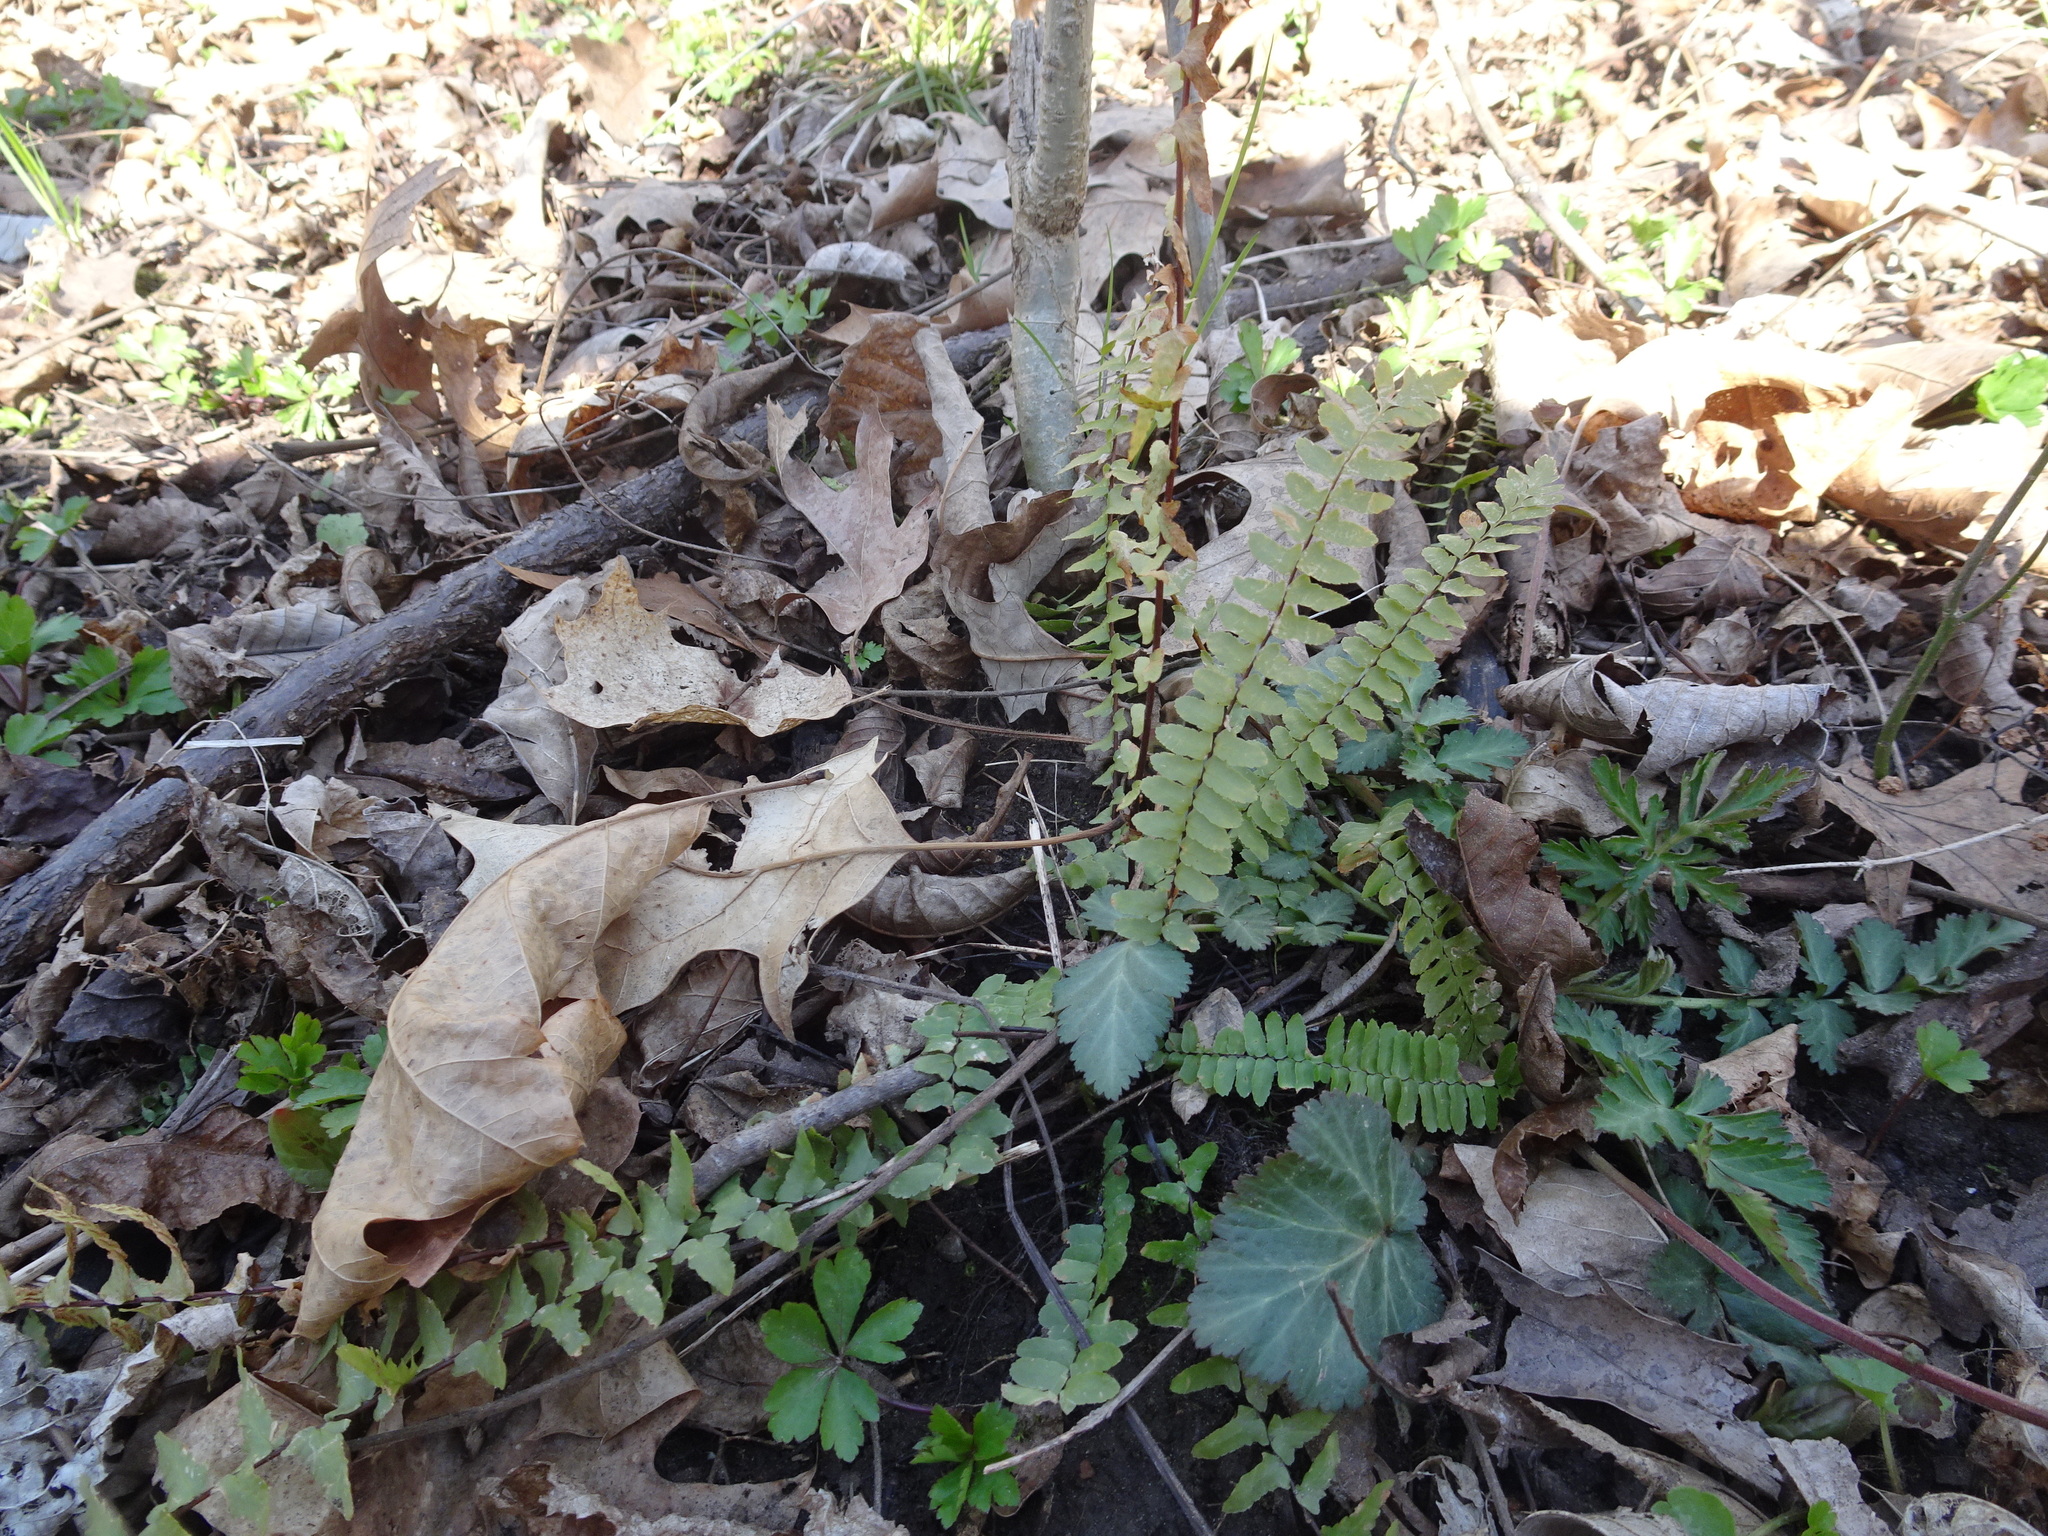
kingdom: Plantae
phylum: Tracheophyta
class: Polypodiopsida
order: Polypodiales
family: Aspleniaceae
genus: Asplenium
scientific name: Asplenium platyneuron
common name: Ebony spleenwort
